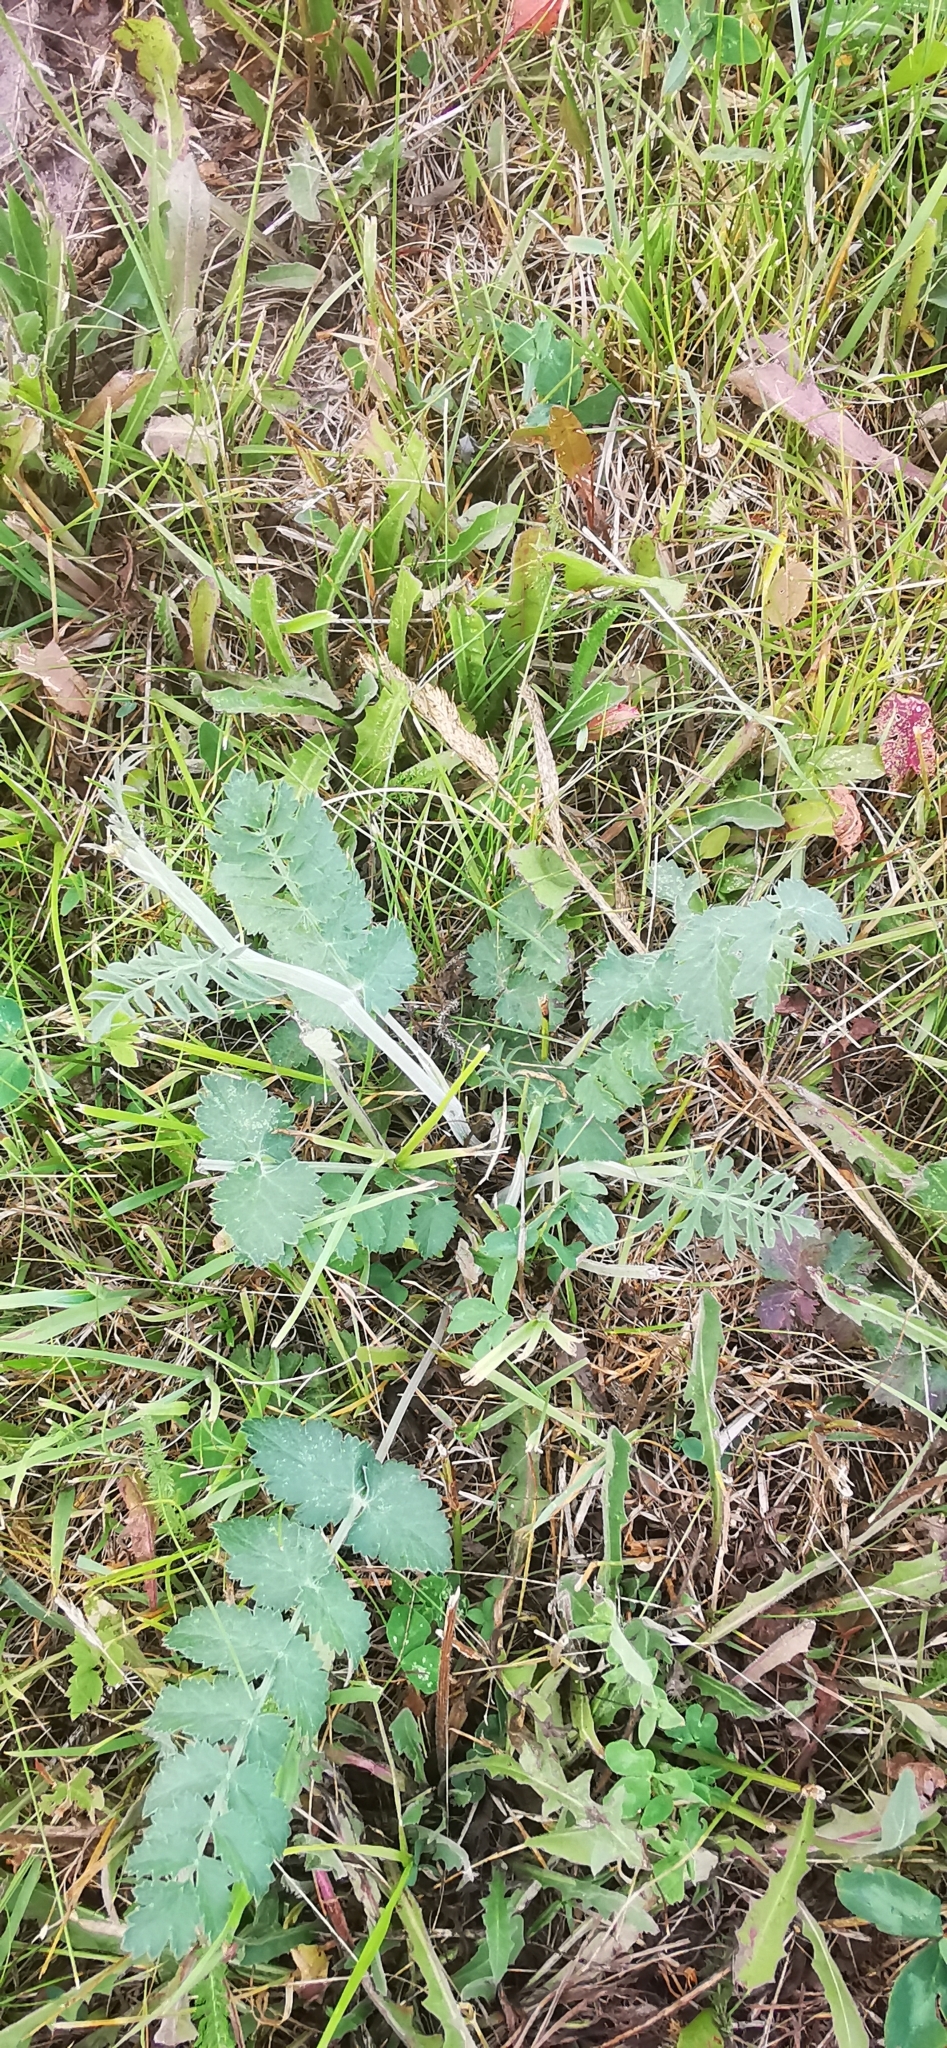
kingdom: Plantae
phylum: Tracheophyta
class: Magnoliopsida
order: Apiales
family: Apiaceae
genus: Pimpinella
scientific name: Pimpinella saxifraga
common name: Burnet-saxifrage
